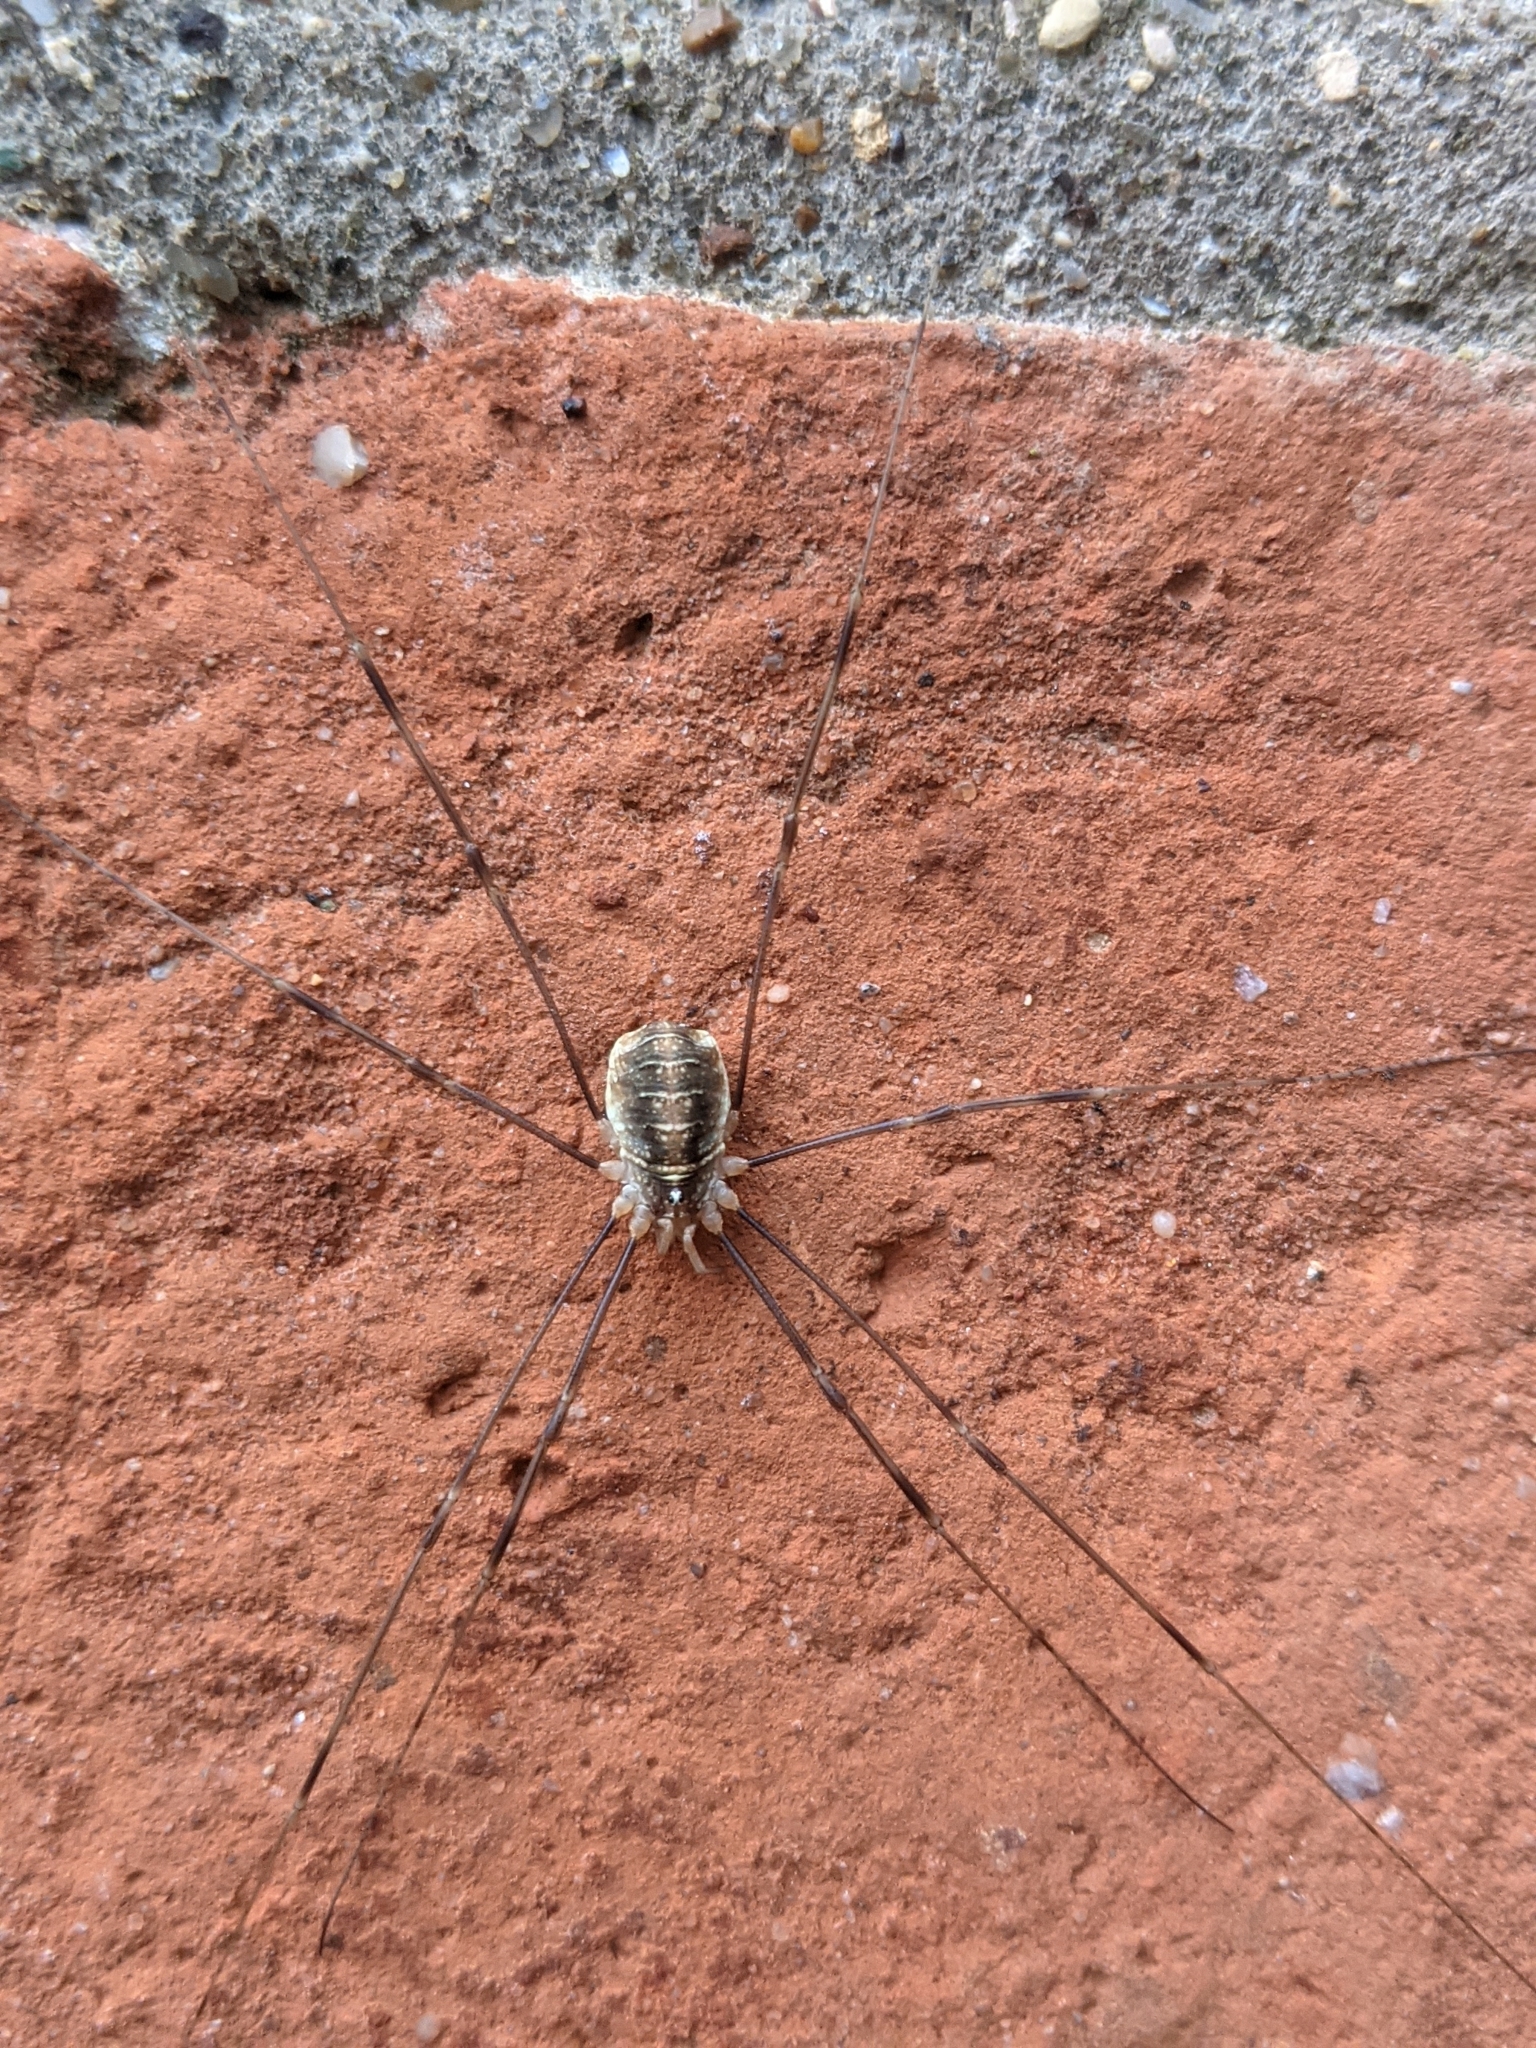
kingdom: Animalia
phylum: Arthropoda
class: Arachnida
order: Opiliones
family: Phalangiidae
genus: Opilio
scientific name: Opilio canestrinii
